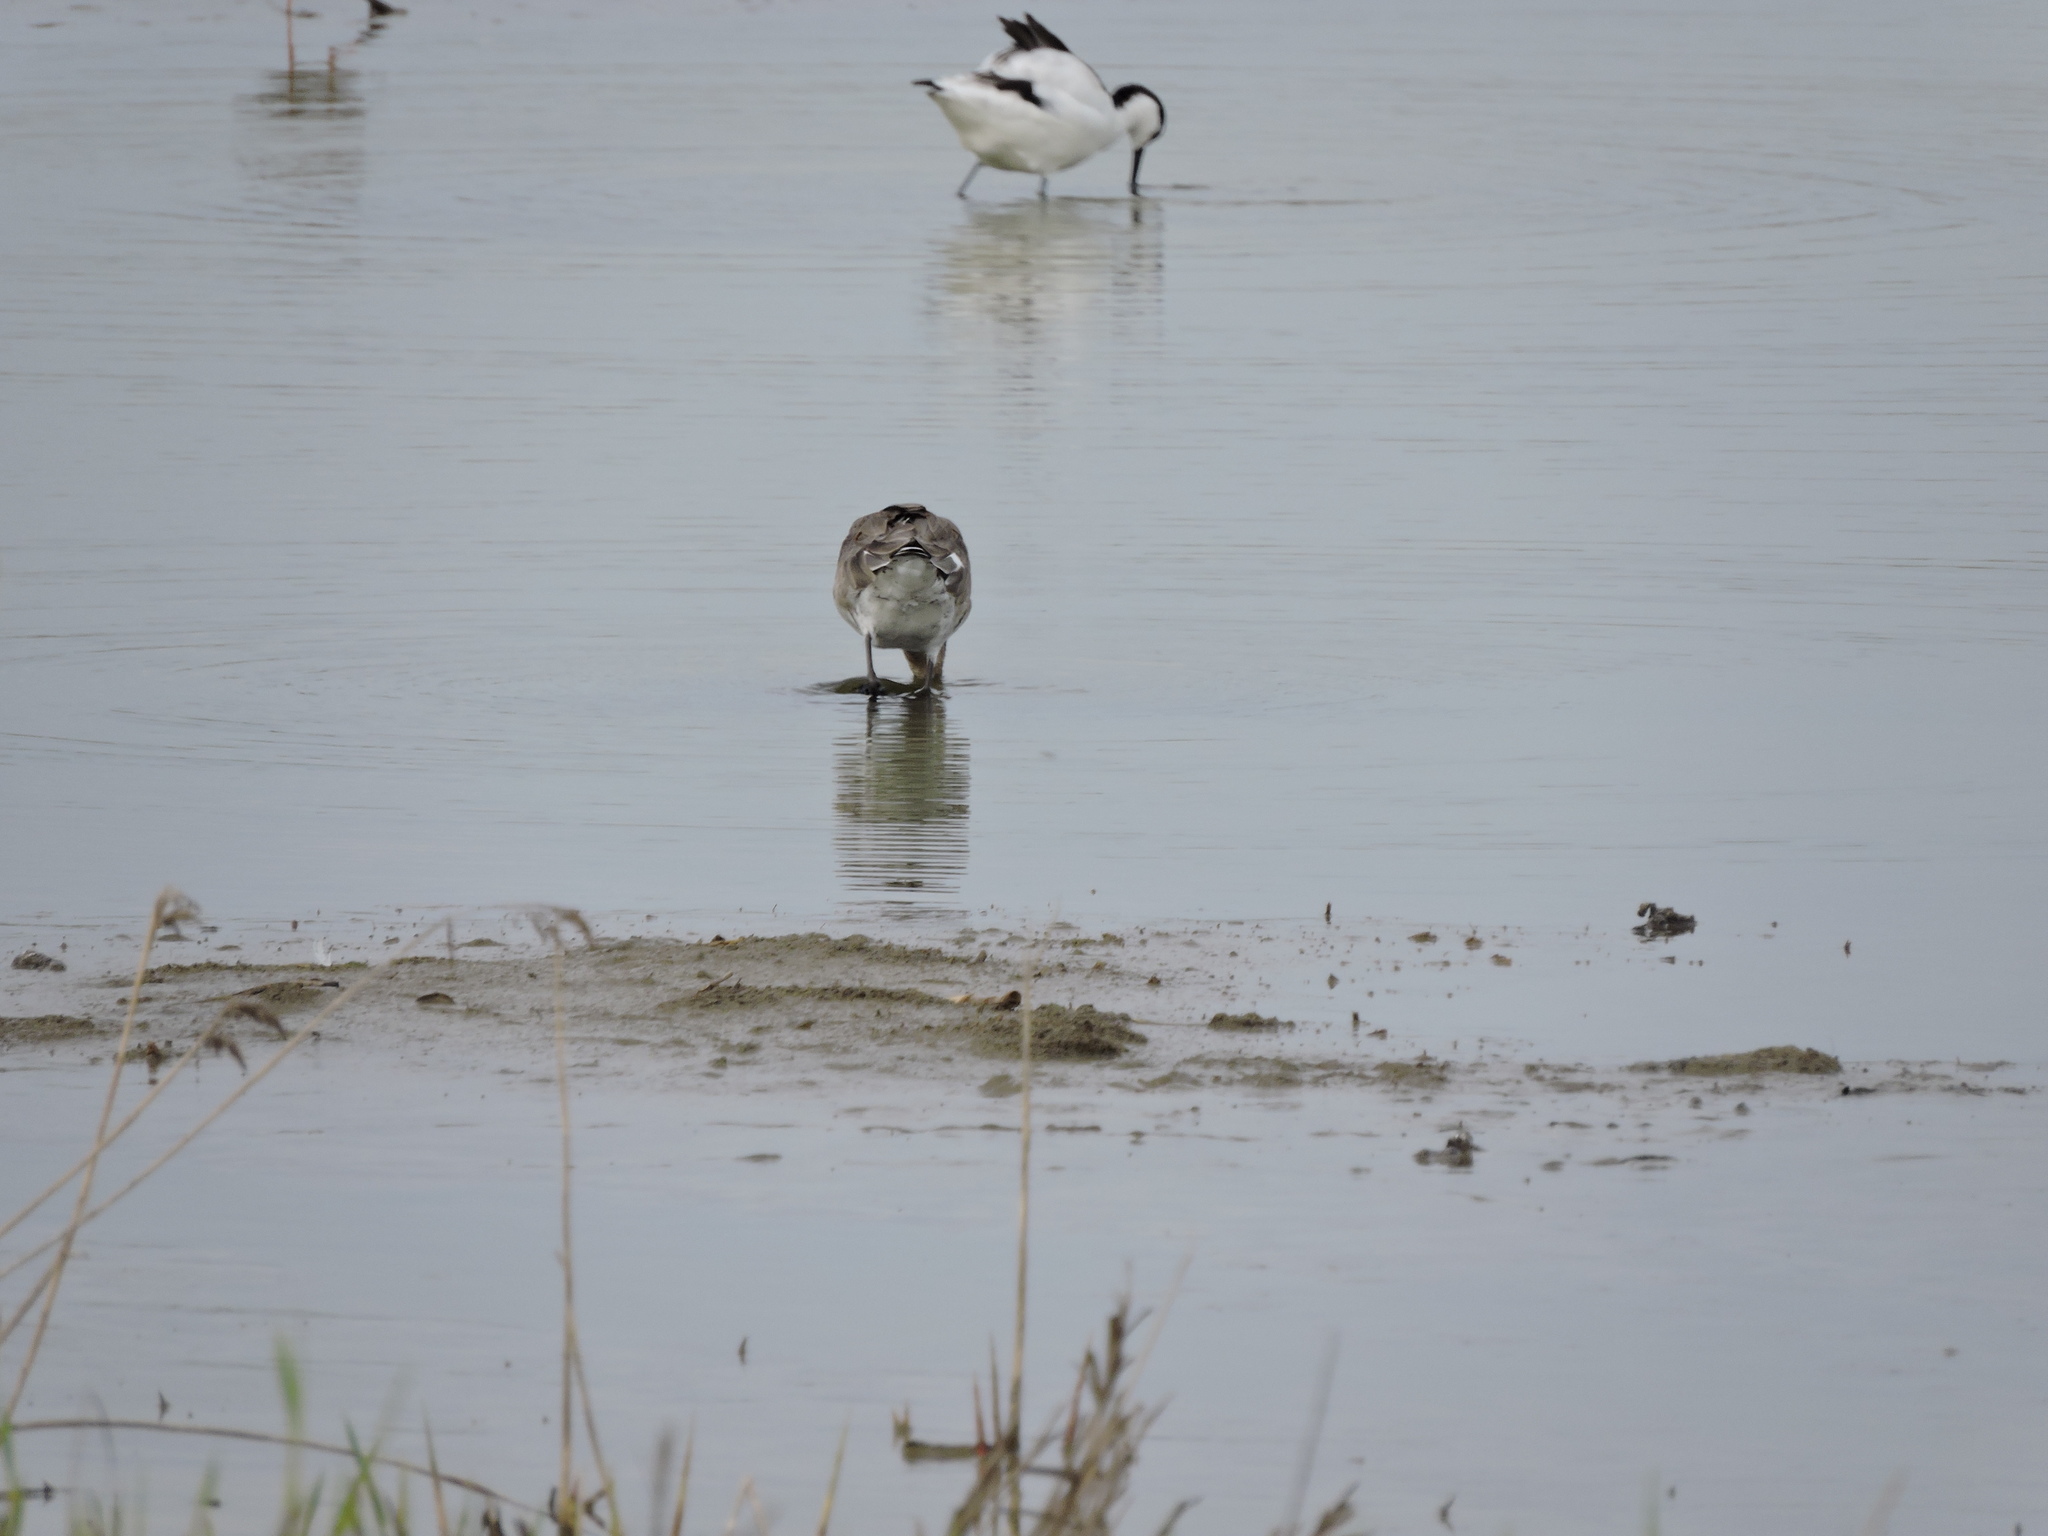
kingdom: Animalia
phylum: Chordata
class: Aves
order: Charadriiformes
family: Recurvirostridae
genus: Recurvirostra
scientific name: Recurvirostra avosetta
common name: Pied avocet
